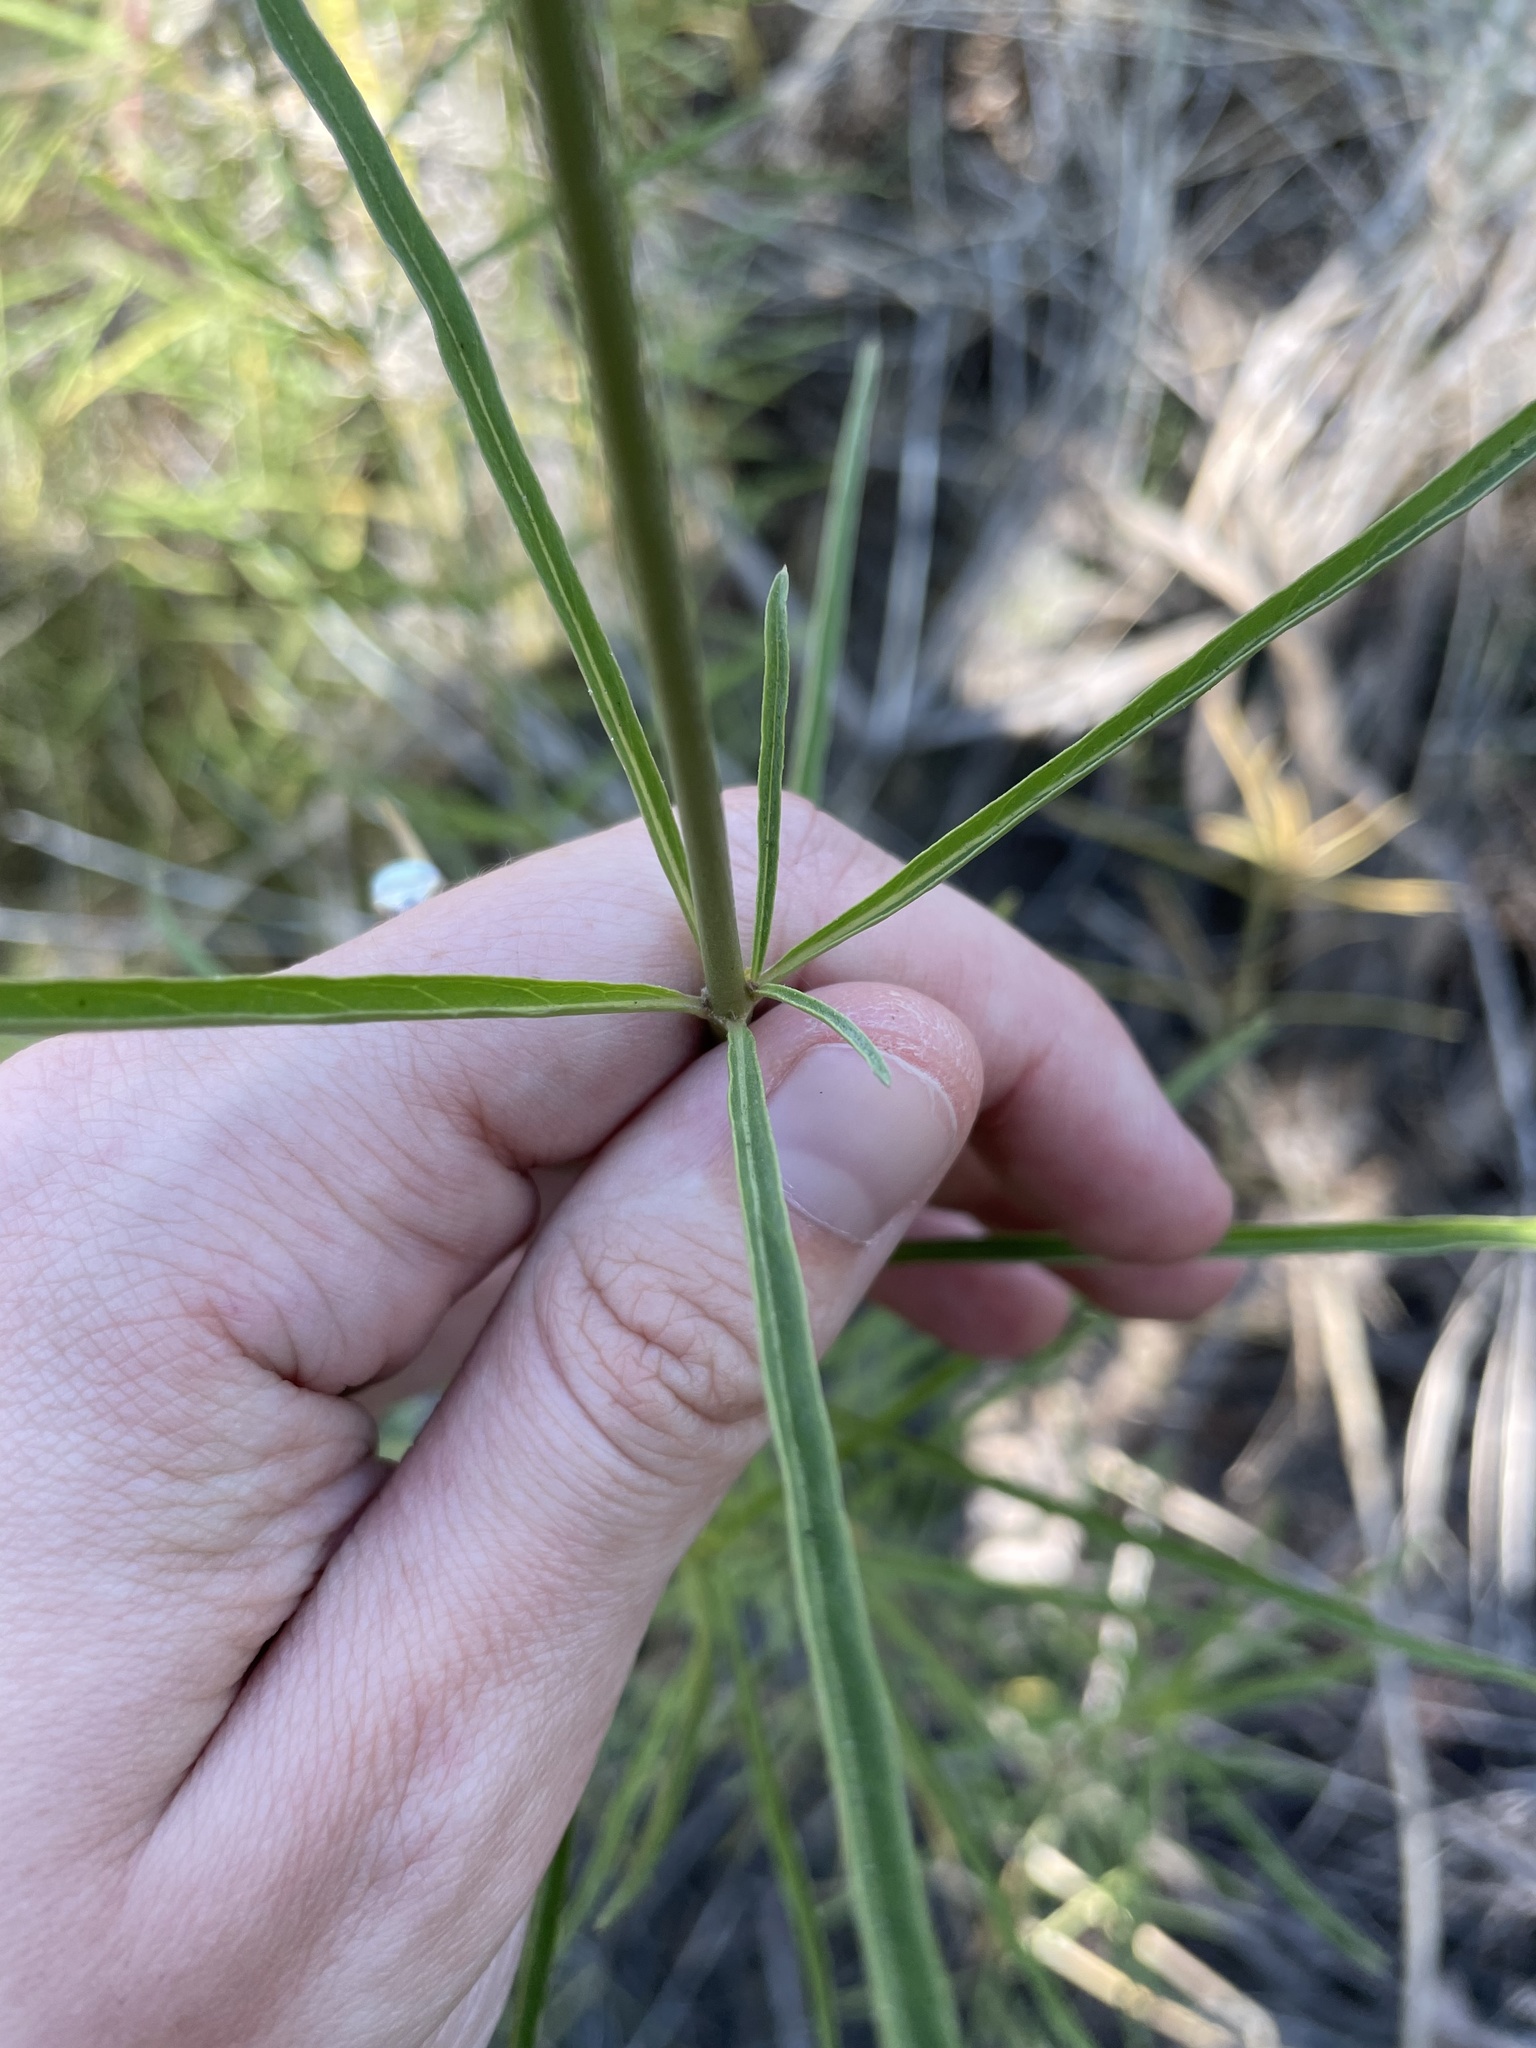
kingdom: Plantae
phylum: Tracheophyta
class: Magnoliopsida
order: Gentianales
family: Apocynaceae
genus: Asclepias
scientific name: Asclepias fascicularis
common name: Mexican milkweed
